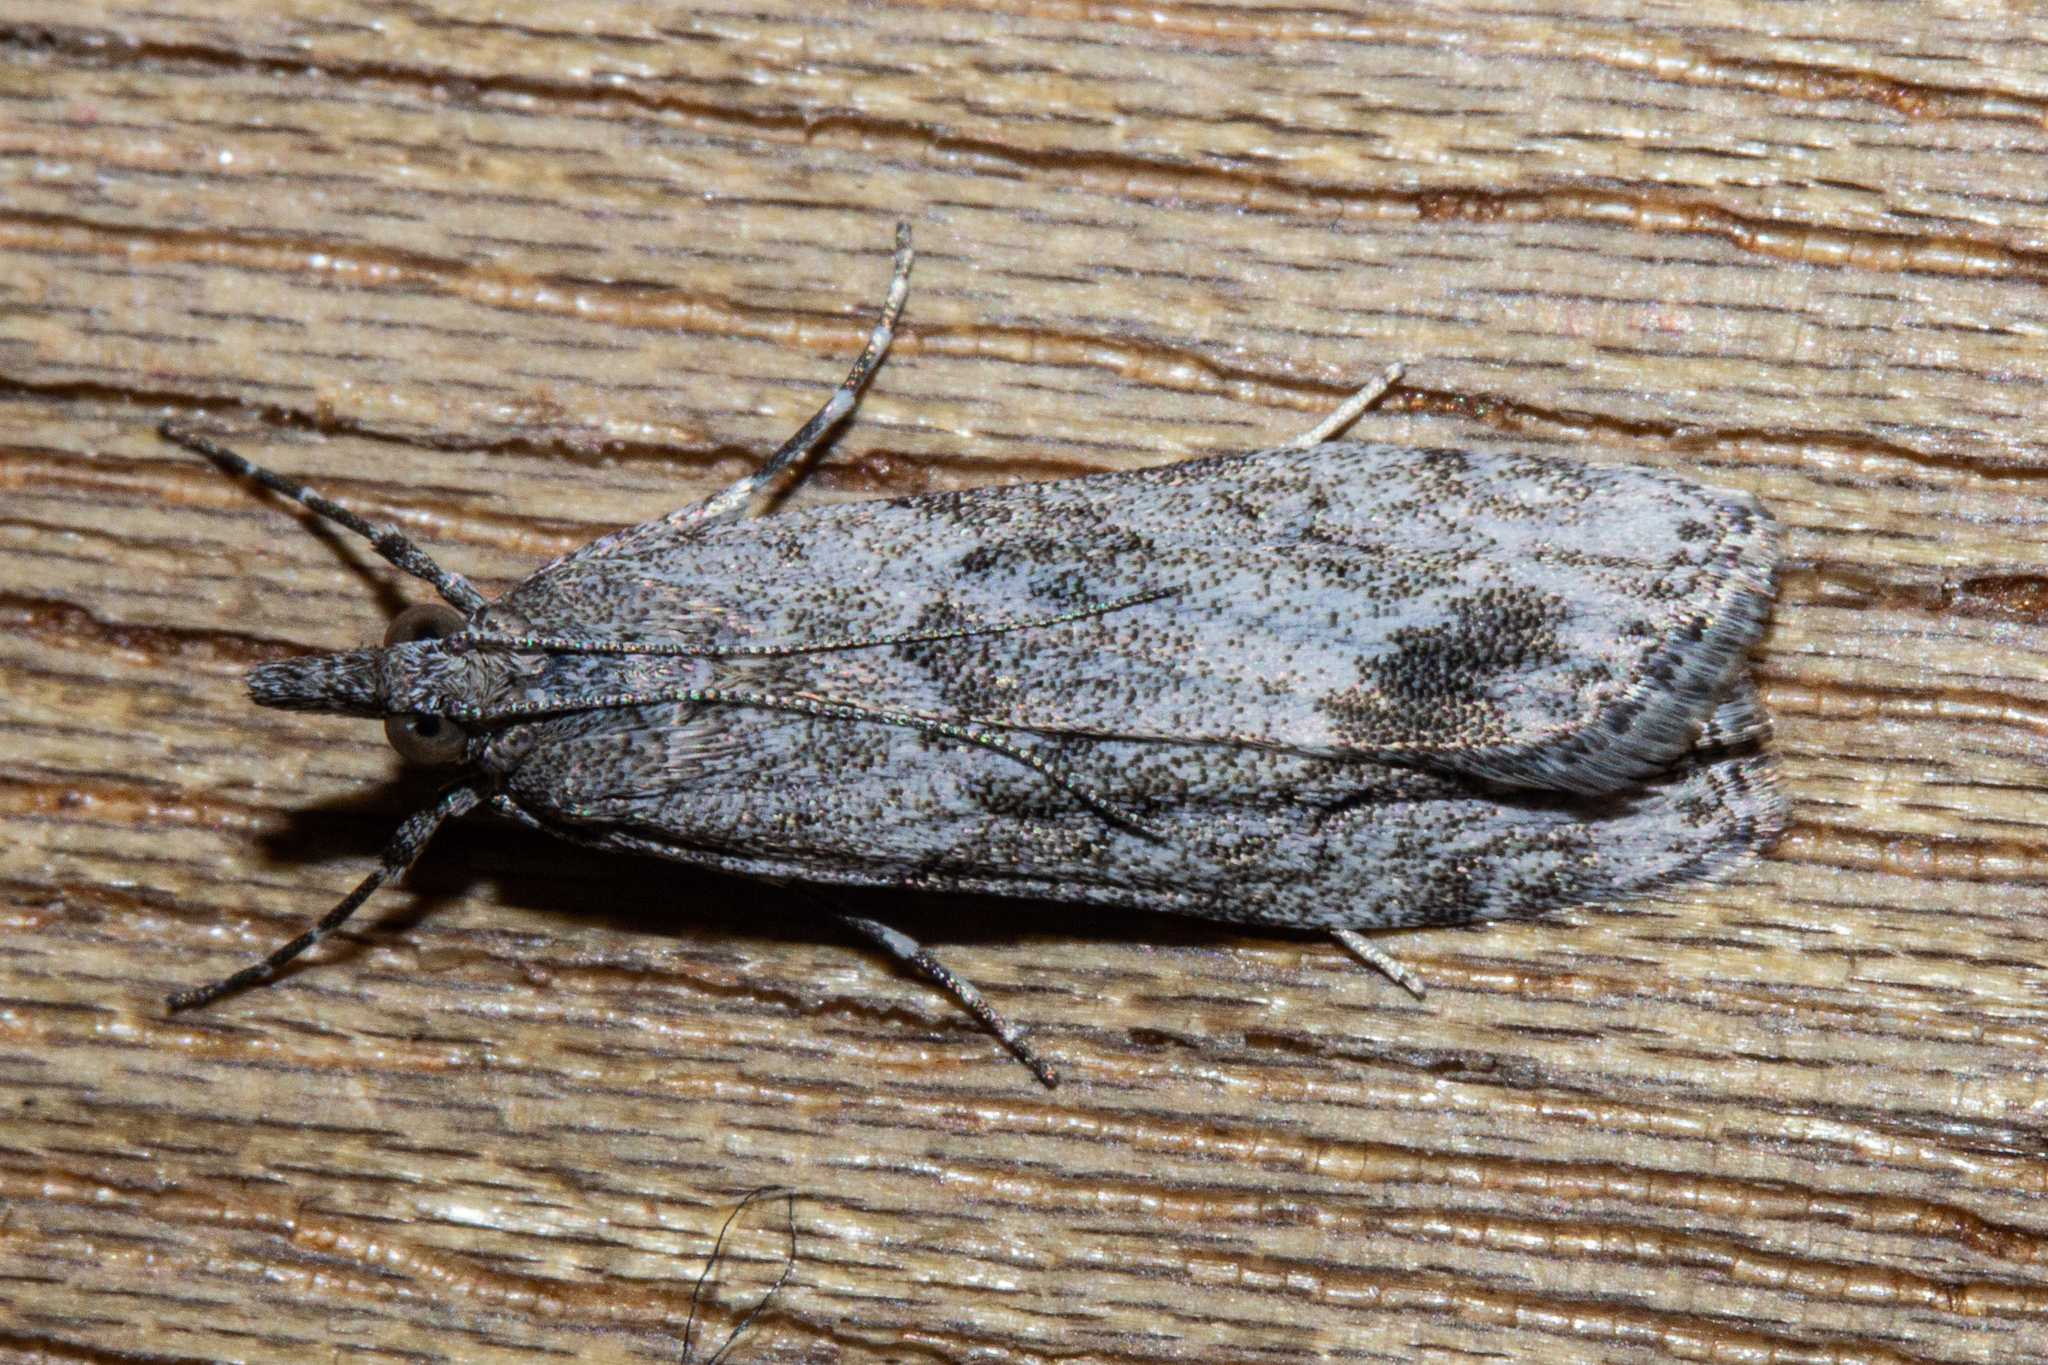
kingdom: Animalia
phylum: Arthropoda
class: Insecta
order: Lepidoptera
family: Crambidae
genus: Eudonia
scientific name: Eudonia rakaiensis
